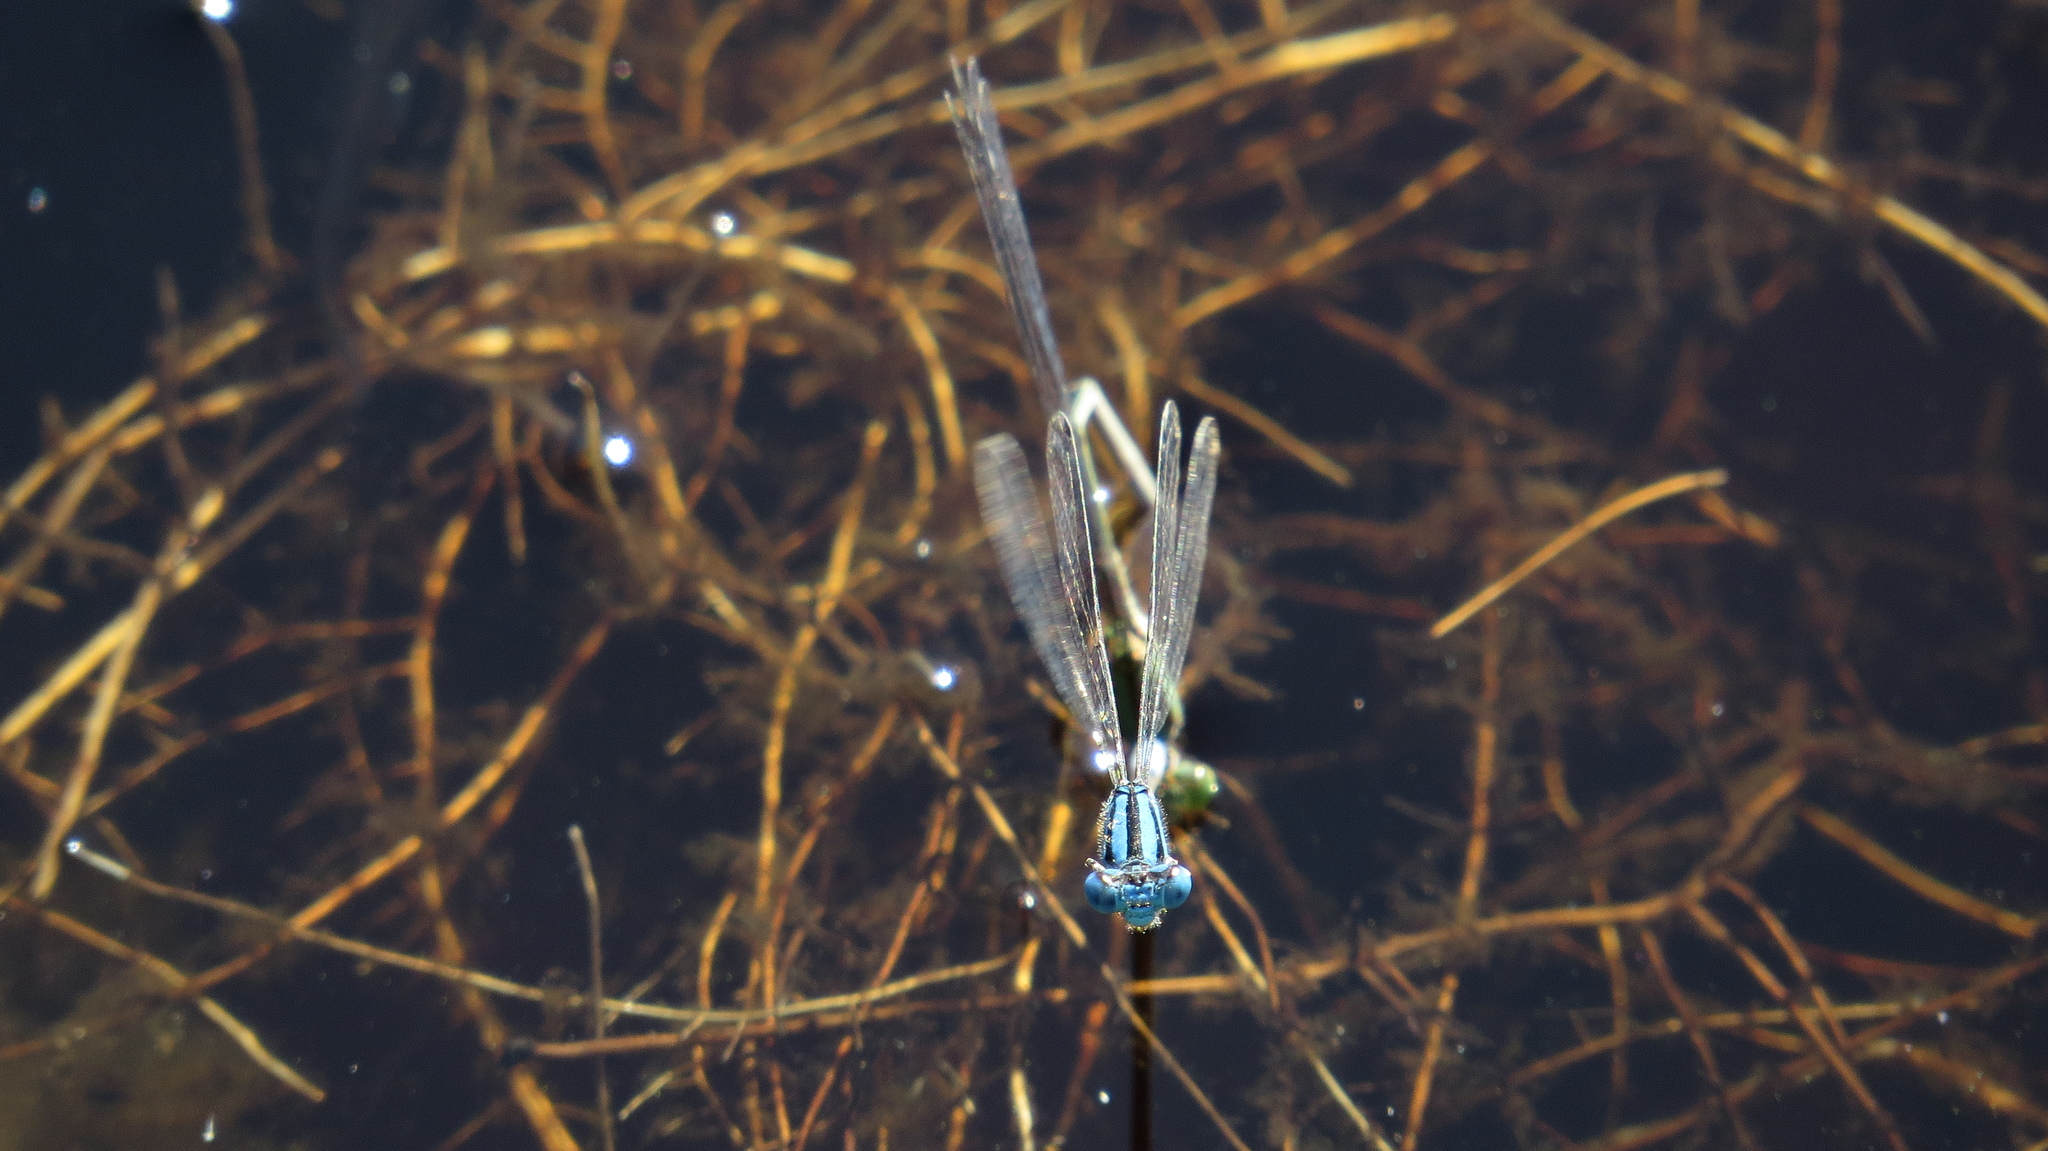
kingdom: Animalia
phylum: Arthropoda
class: Insecta
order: Odonata
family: Coenagrionidae
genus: Pseudagrion
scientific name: Pseudagrion microcephalum
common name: Blue riverdamsel
